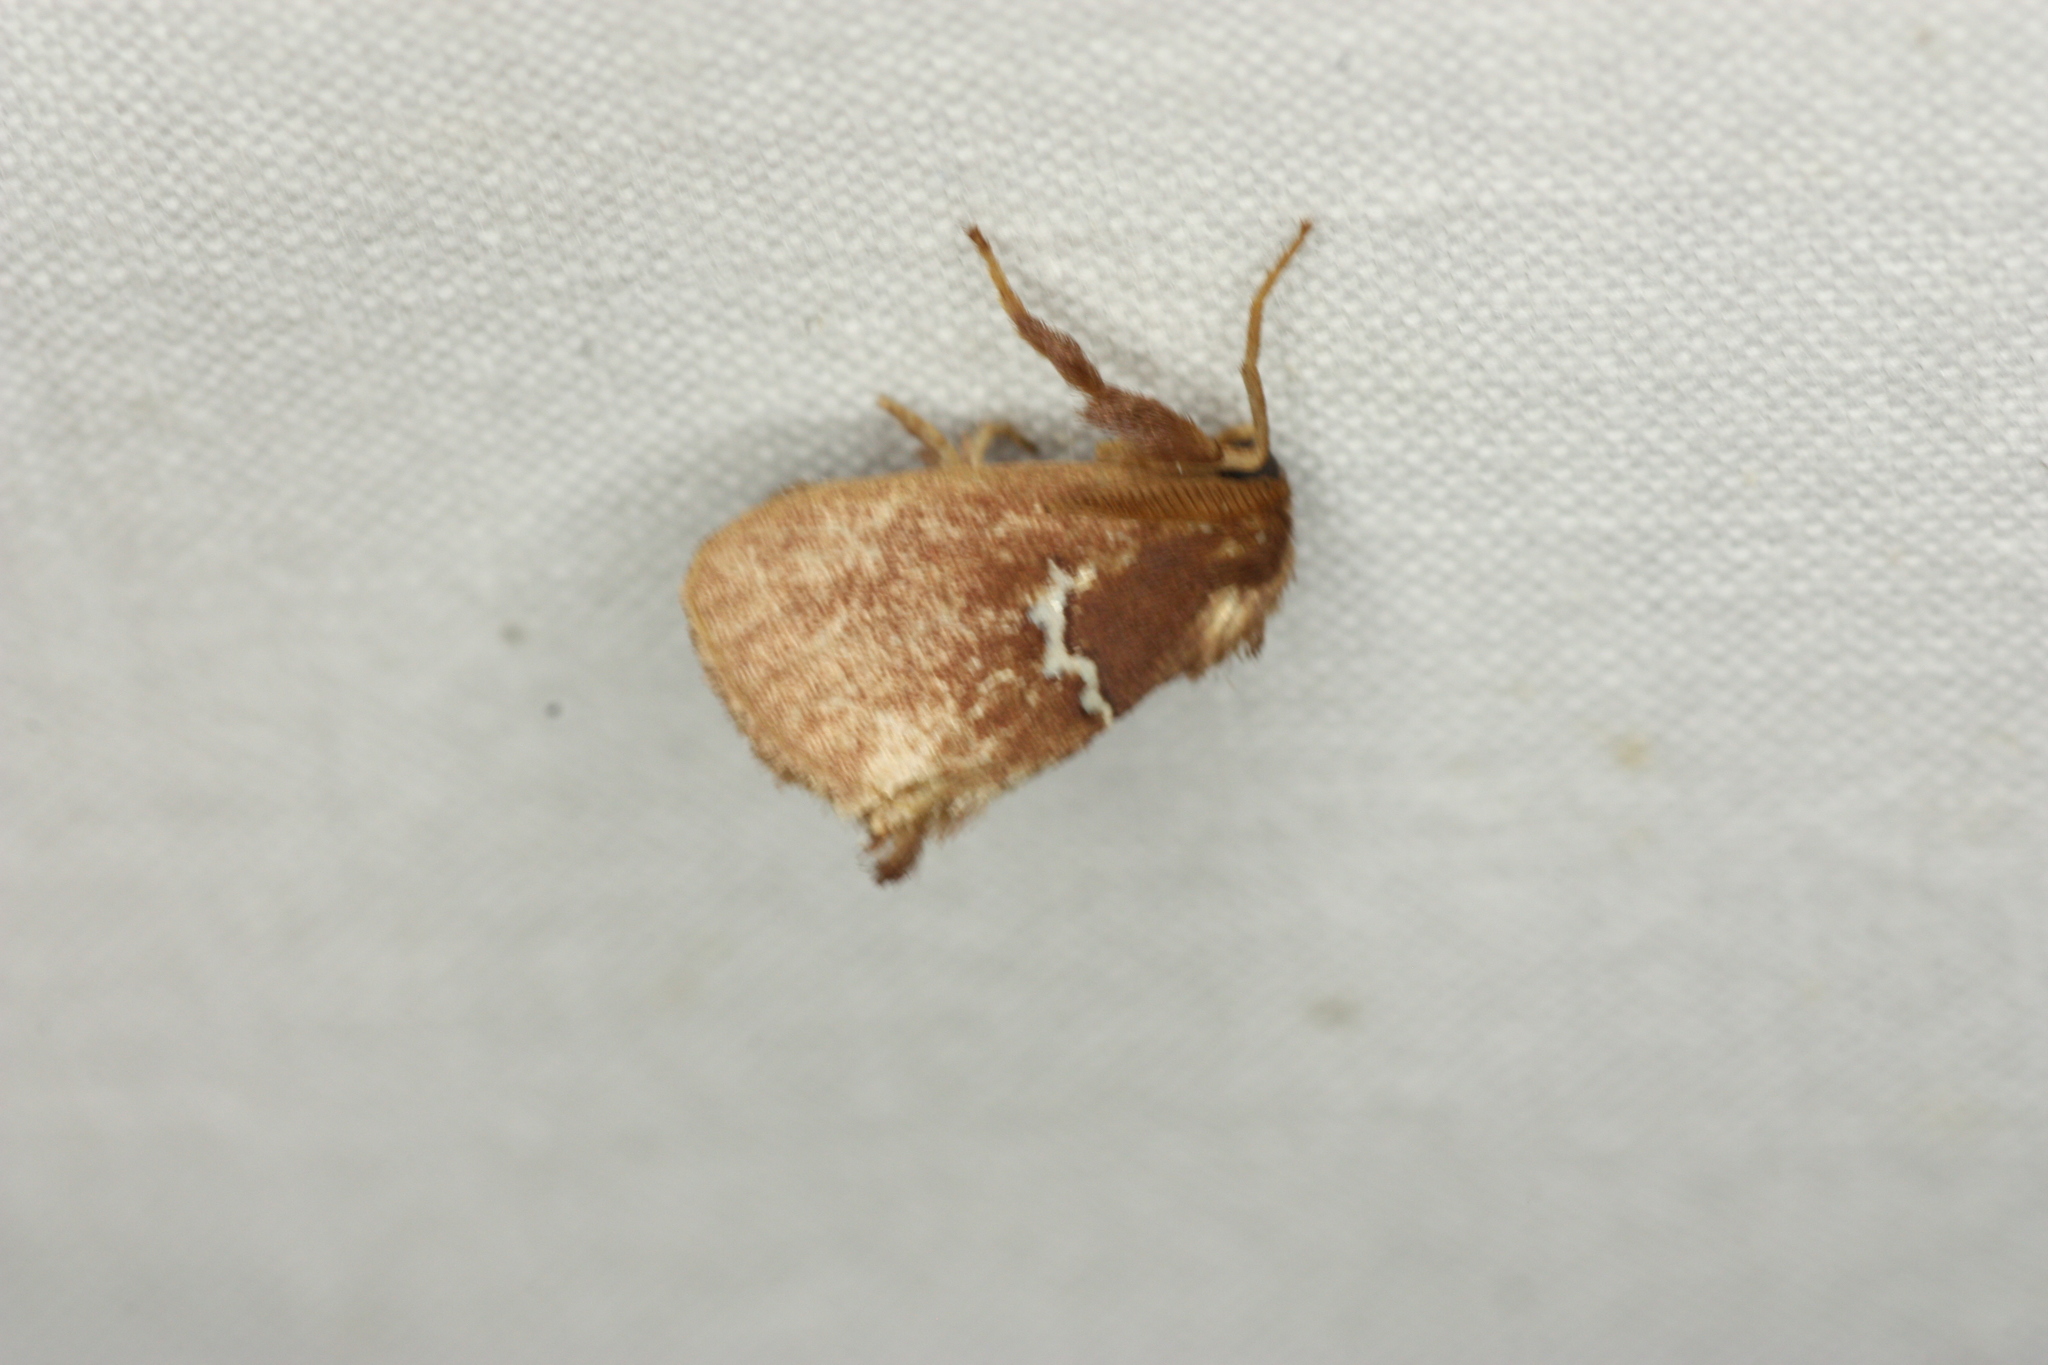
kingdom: Animalia
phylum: Arthropoda
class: Insecta
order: Lepidoptera
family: Limacodidae
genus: Monoleuca
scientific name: Monoleuca semifascia
